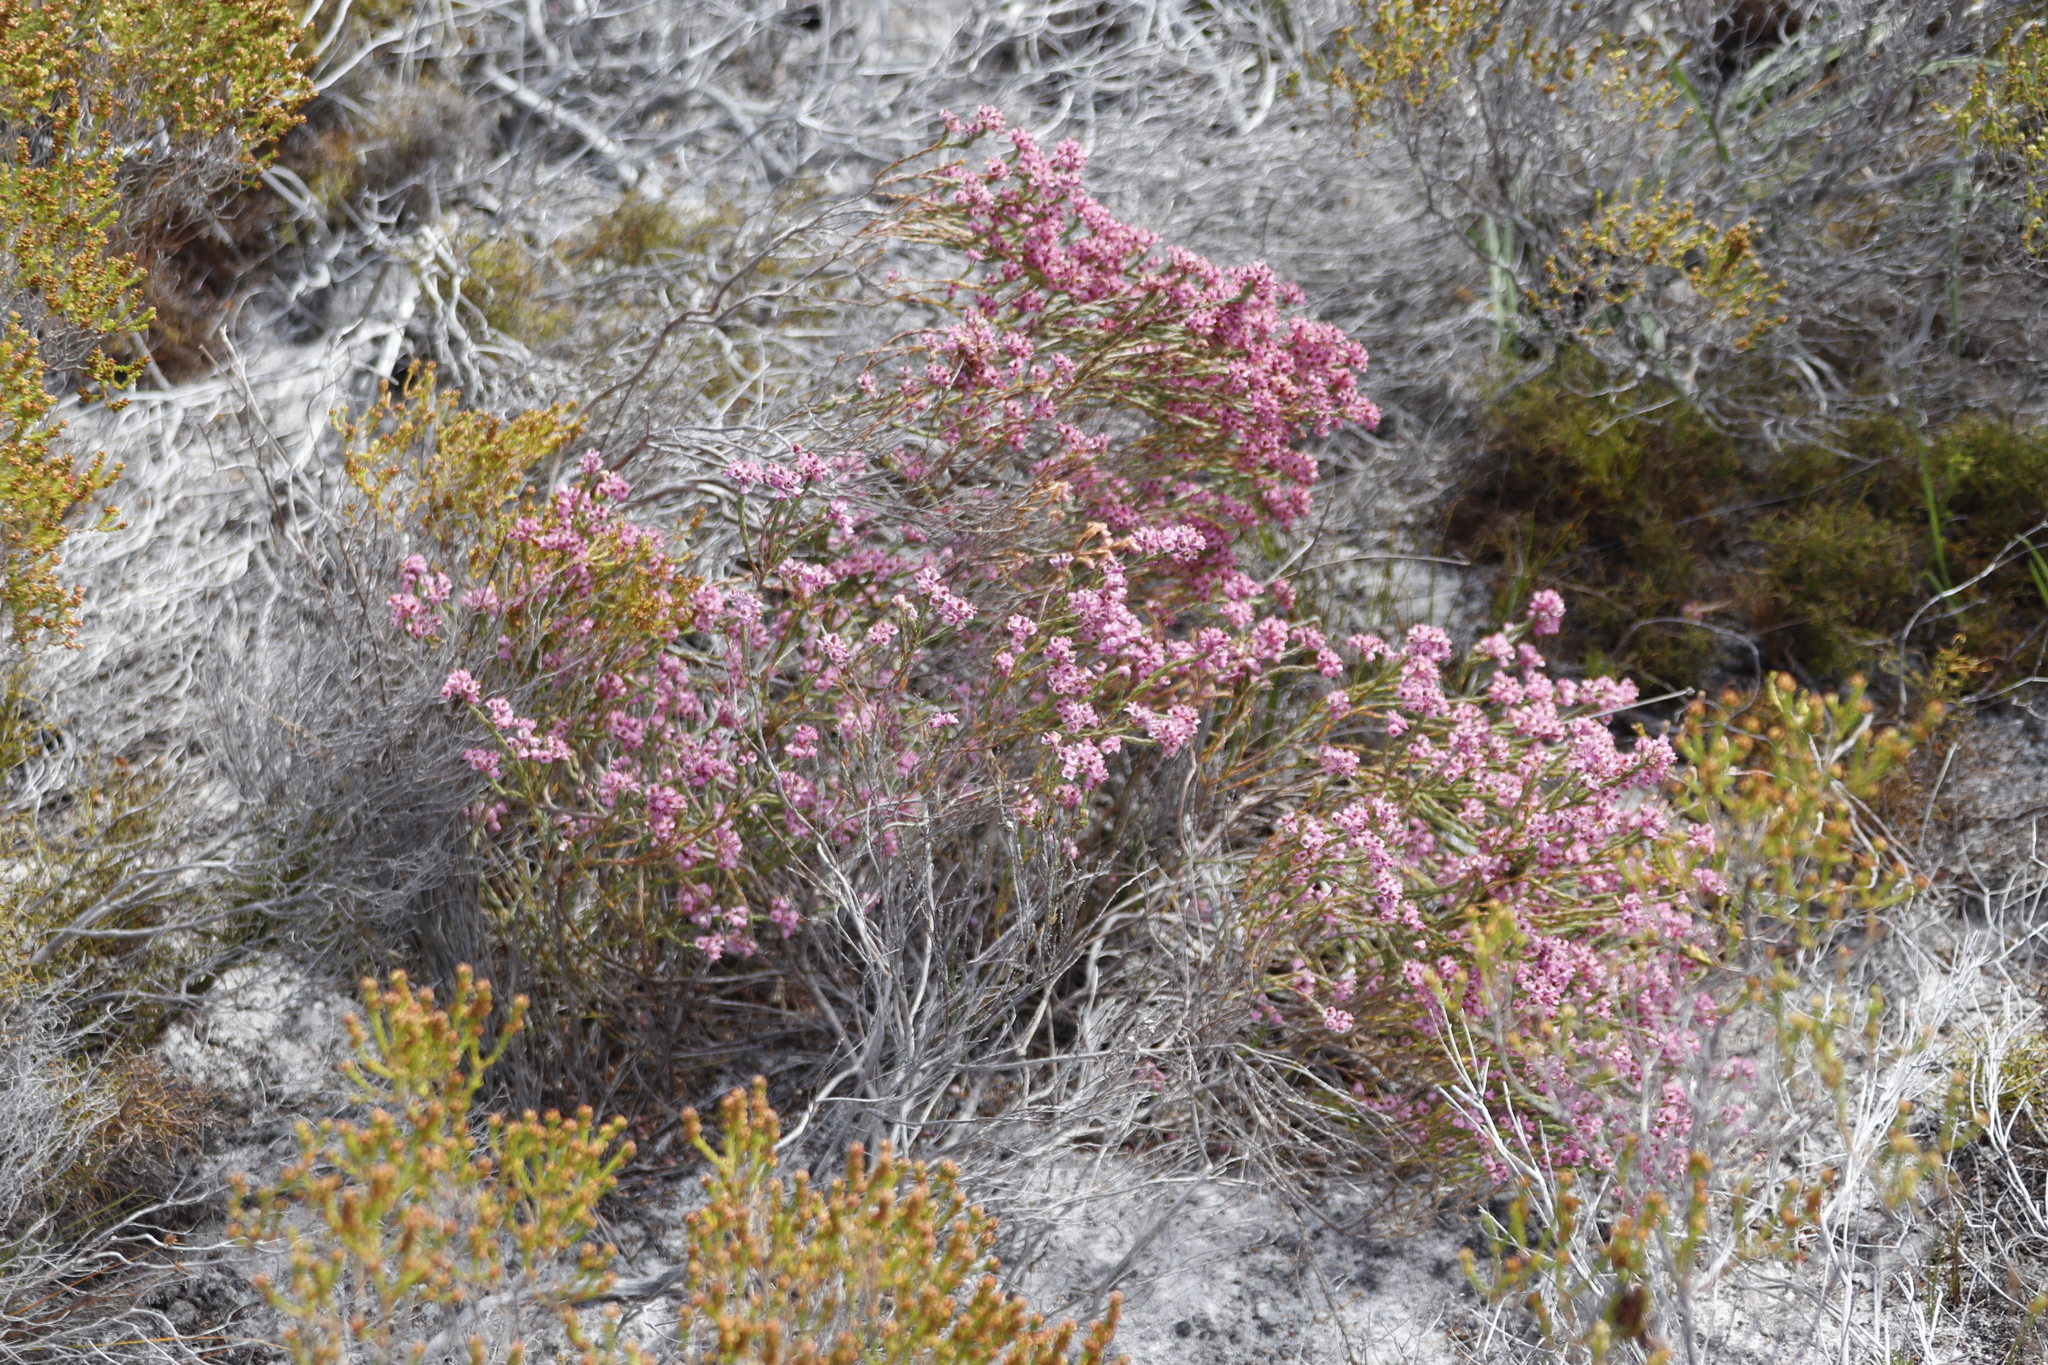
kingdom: Plantae
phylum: Tracheophyta
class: Magnoliopsida
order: Ericales
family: Ericaceae
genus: Erica
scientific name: Erica corifolia
